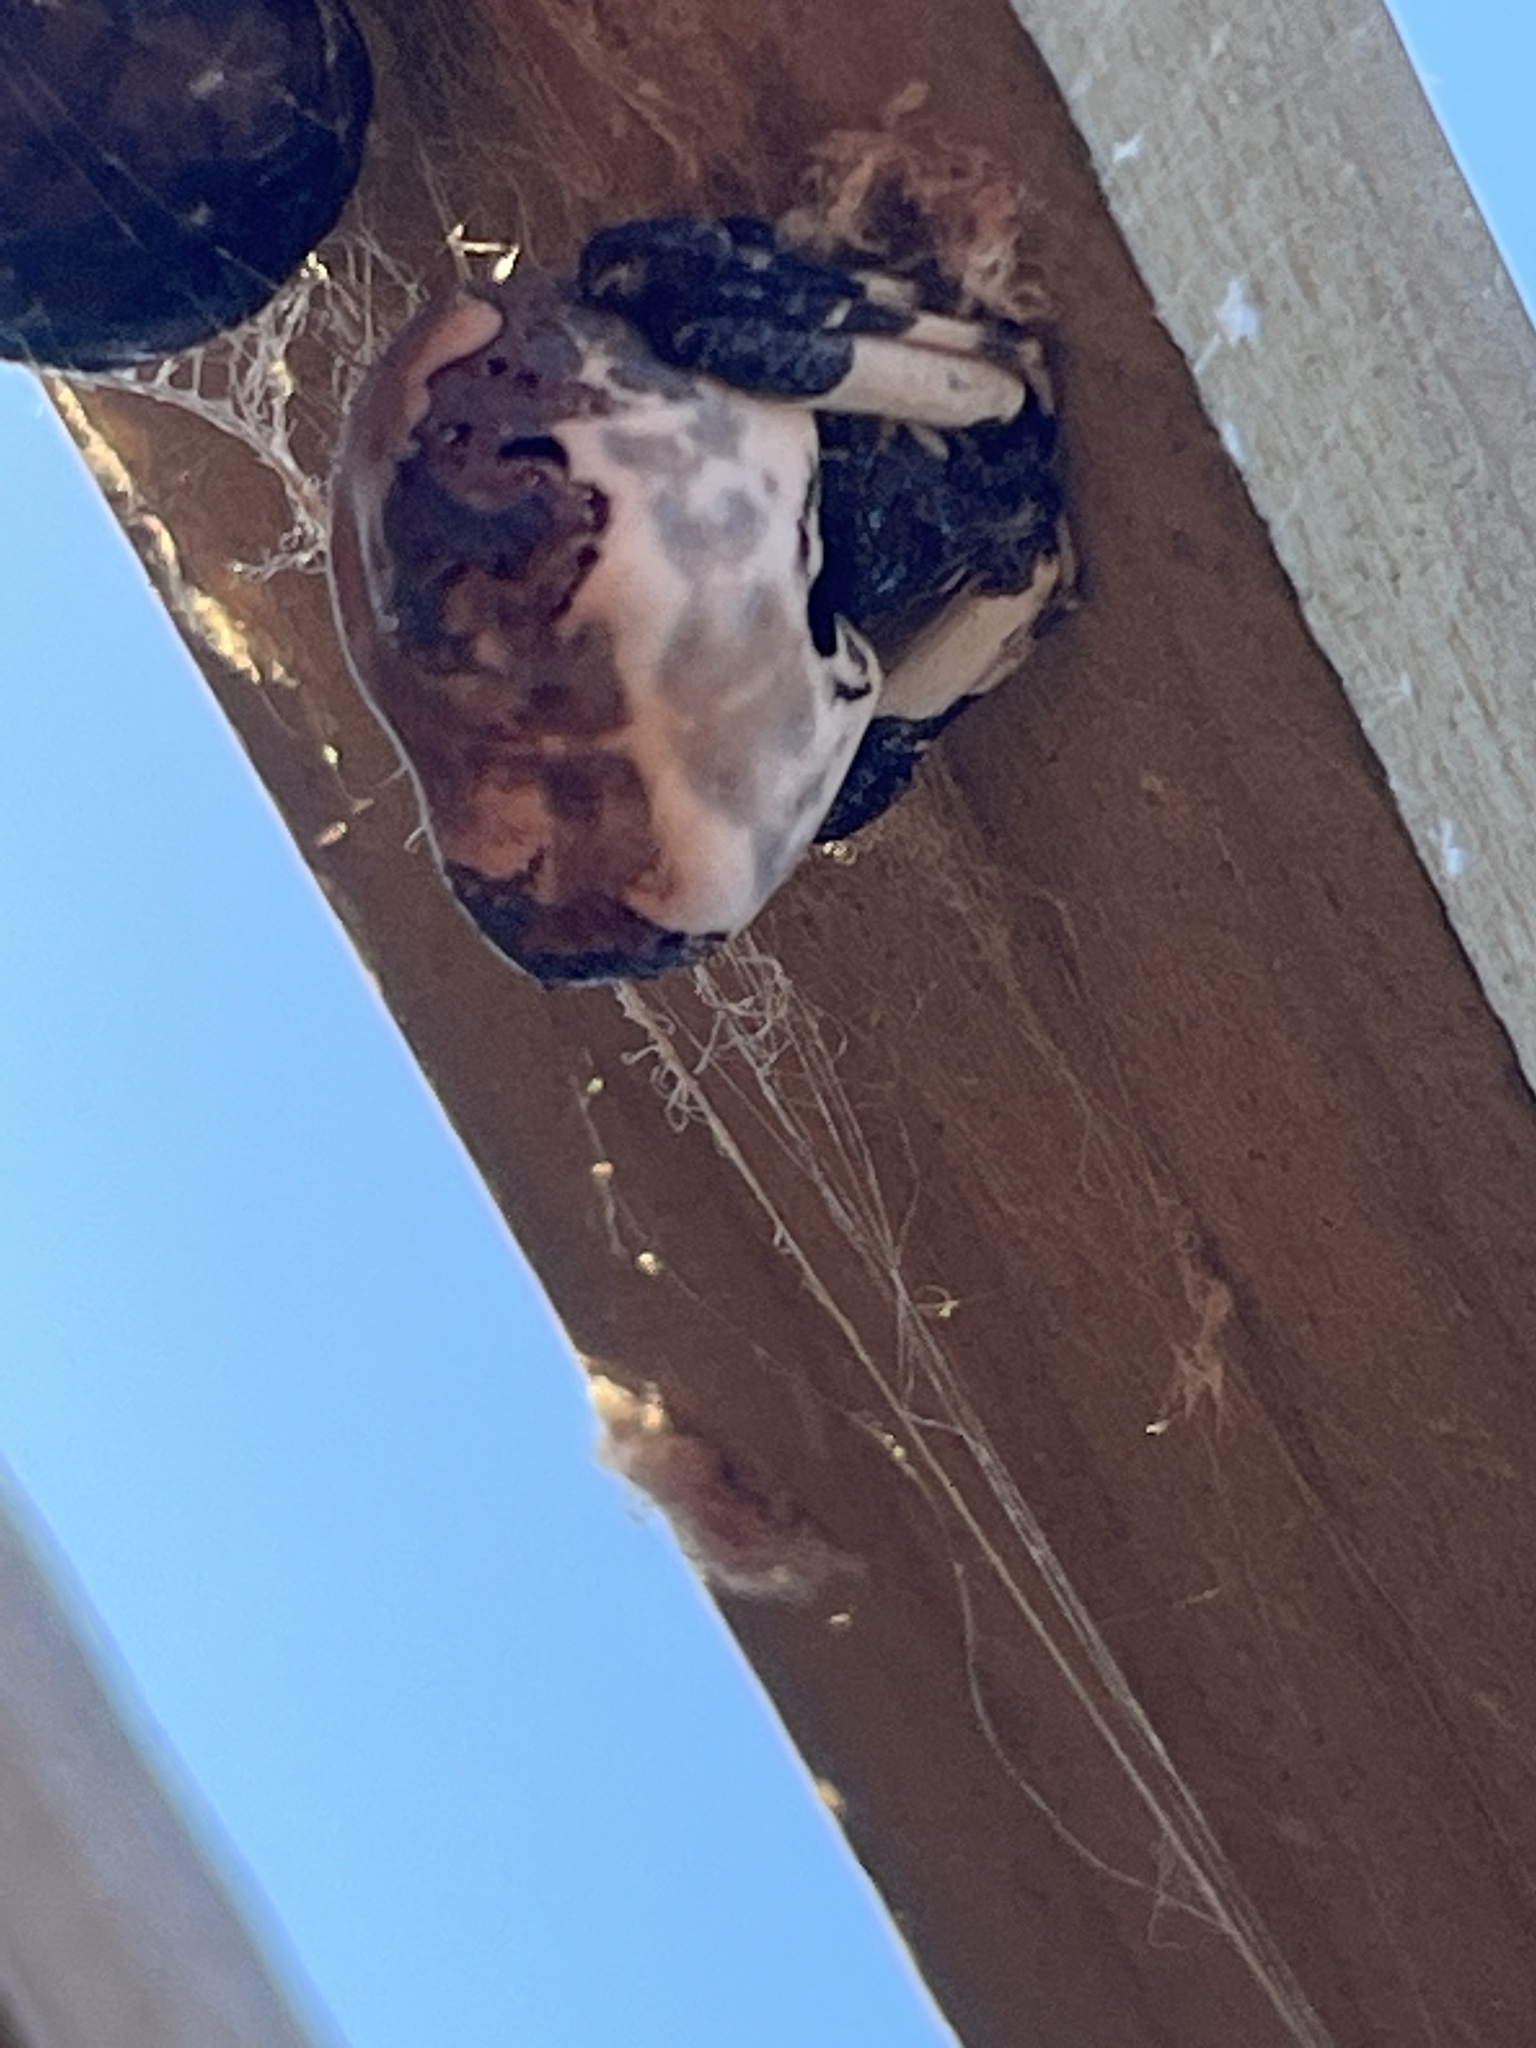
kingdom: Animalia
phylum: Arthropoda
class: Arachnida
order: Araneae
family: Araneidae
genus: Celaenia
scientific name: Celaenia excavata
